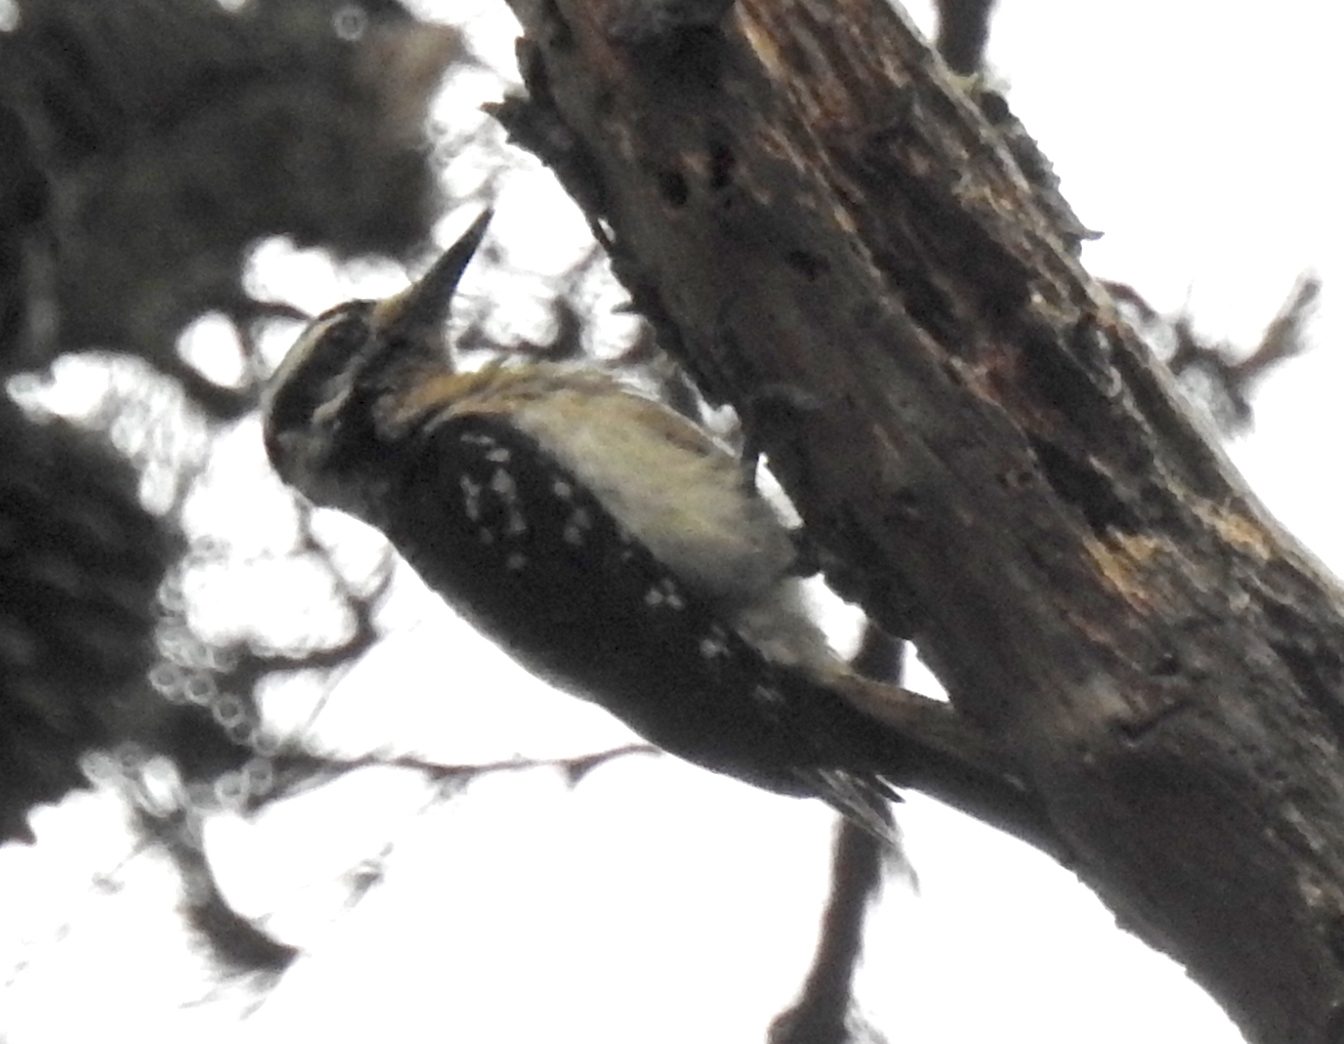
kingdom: Animalia
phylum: Chordata
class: Aves
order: Piciformes
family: Picidae
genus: Leuconotopicus
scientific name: Leuconotopicus villosus
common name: Hairy woodpecker
